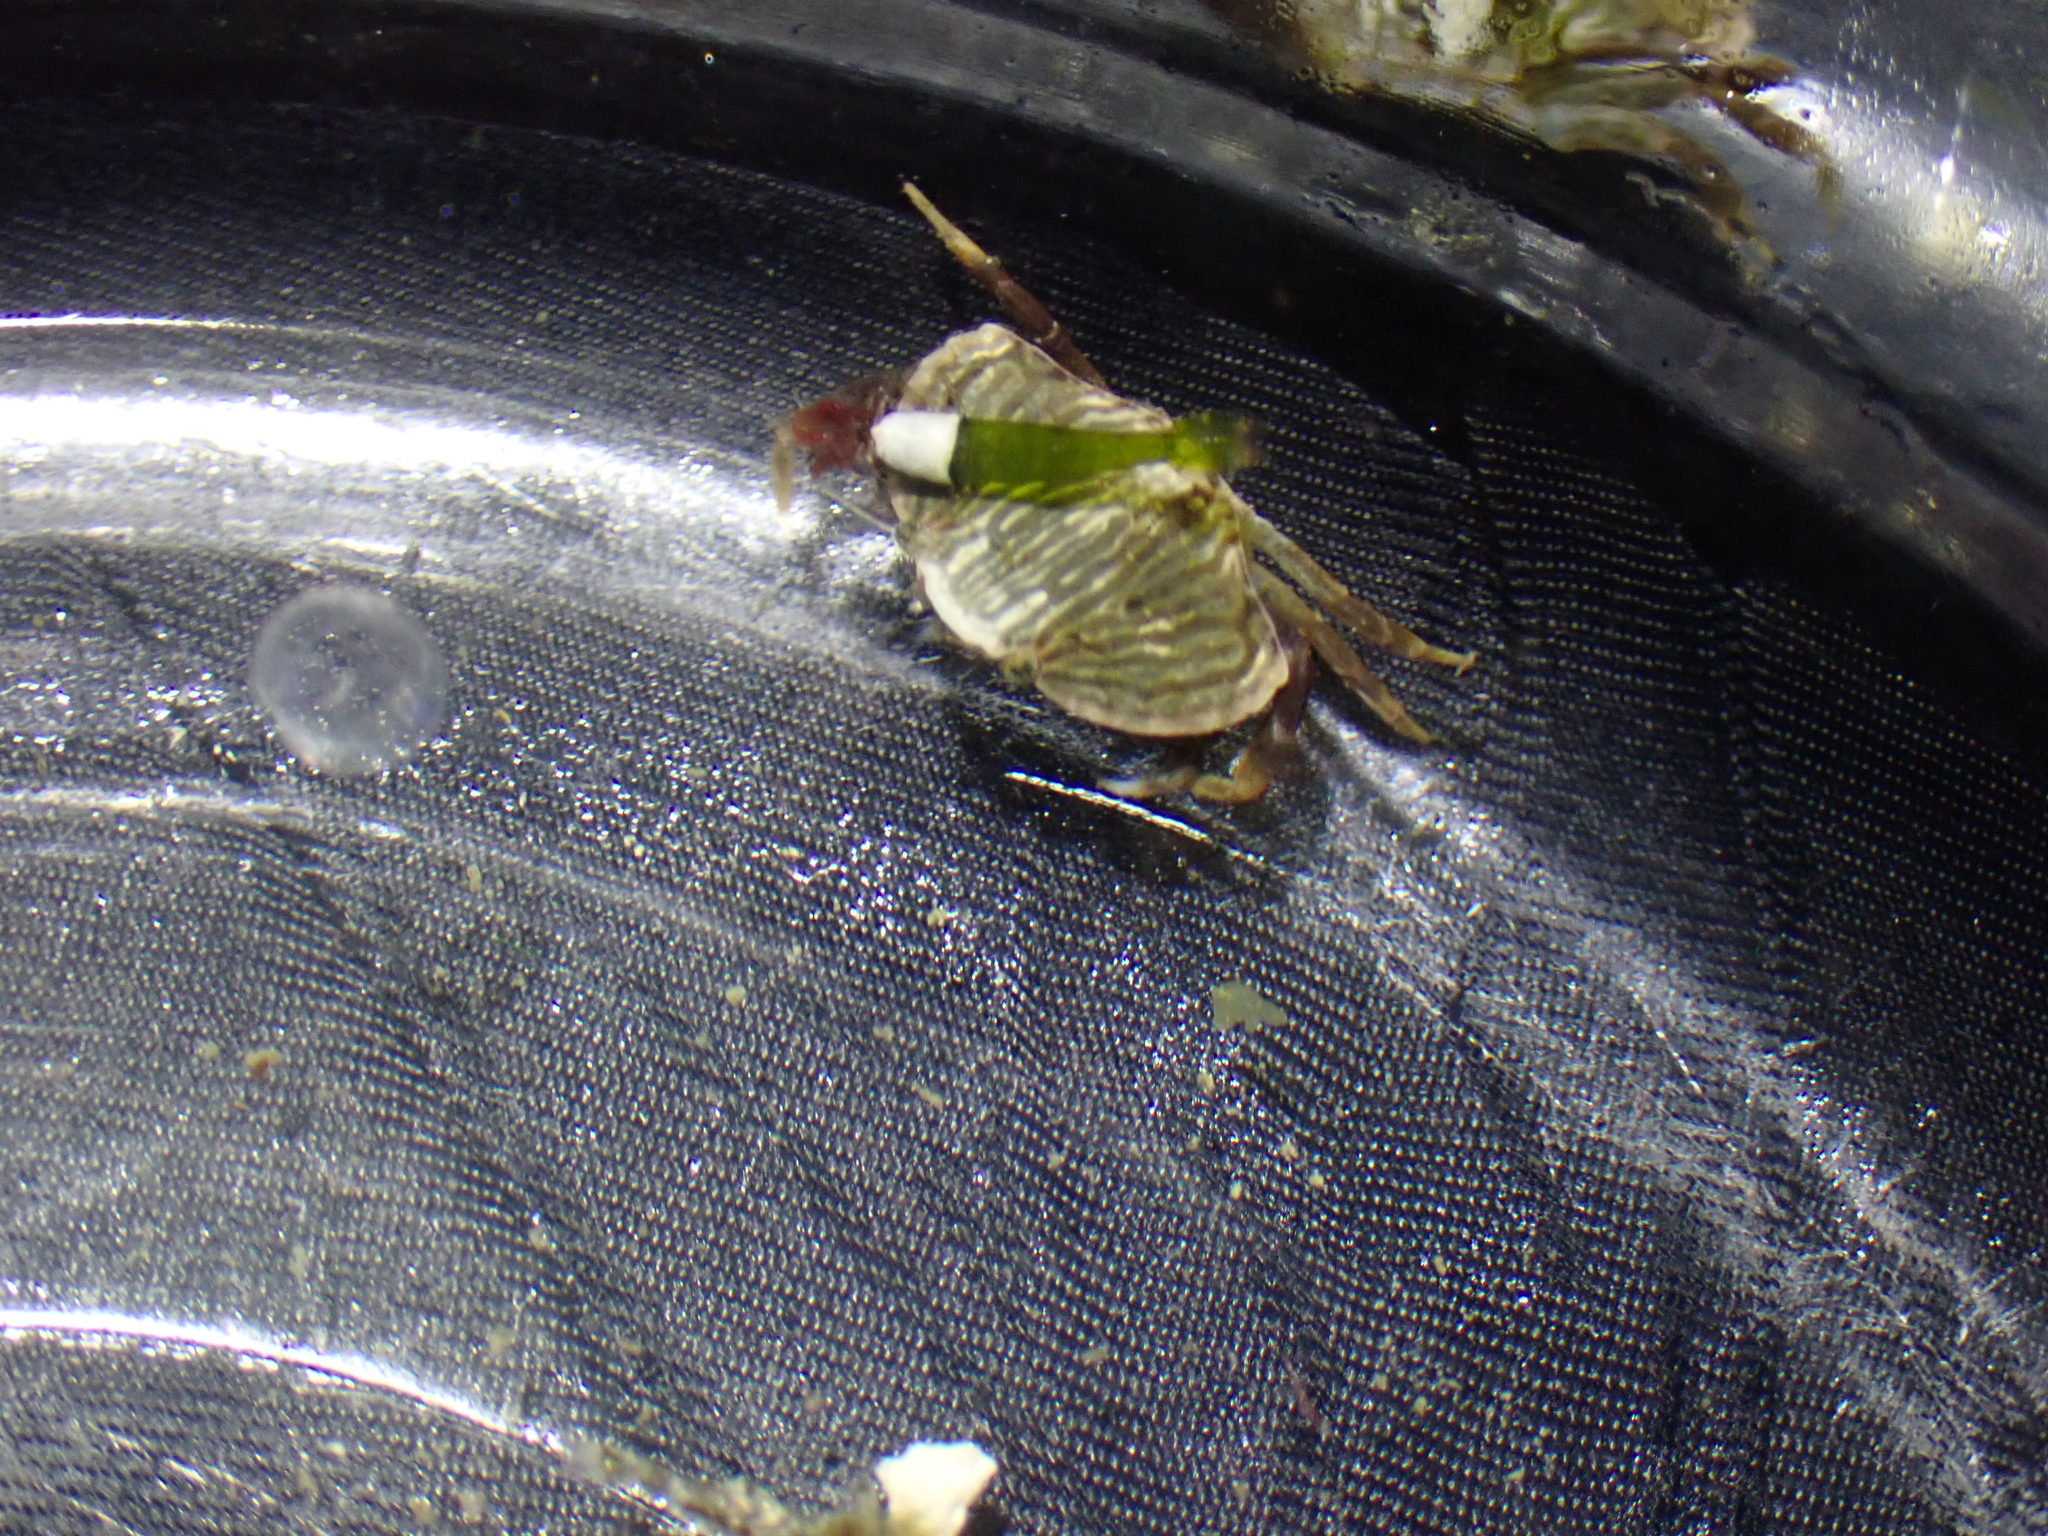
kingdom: Animalia
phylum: Arthropoda
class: Malacostraca
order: Decapoda
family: Cancridae
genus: Cancer
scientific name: Cancer productus
